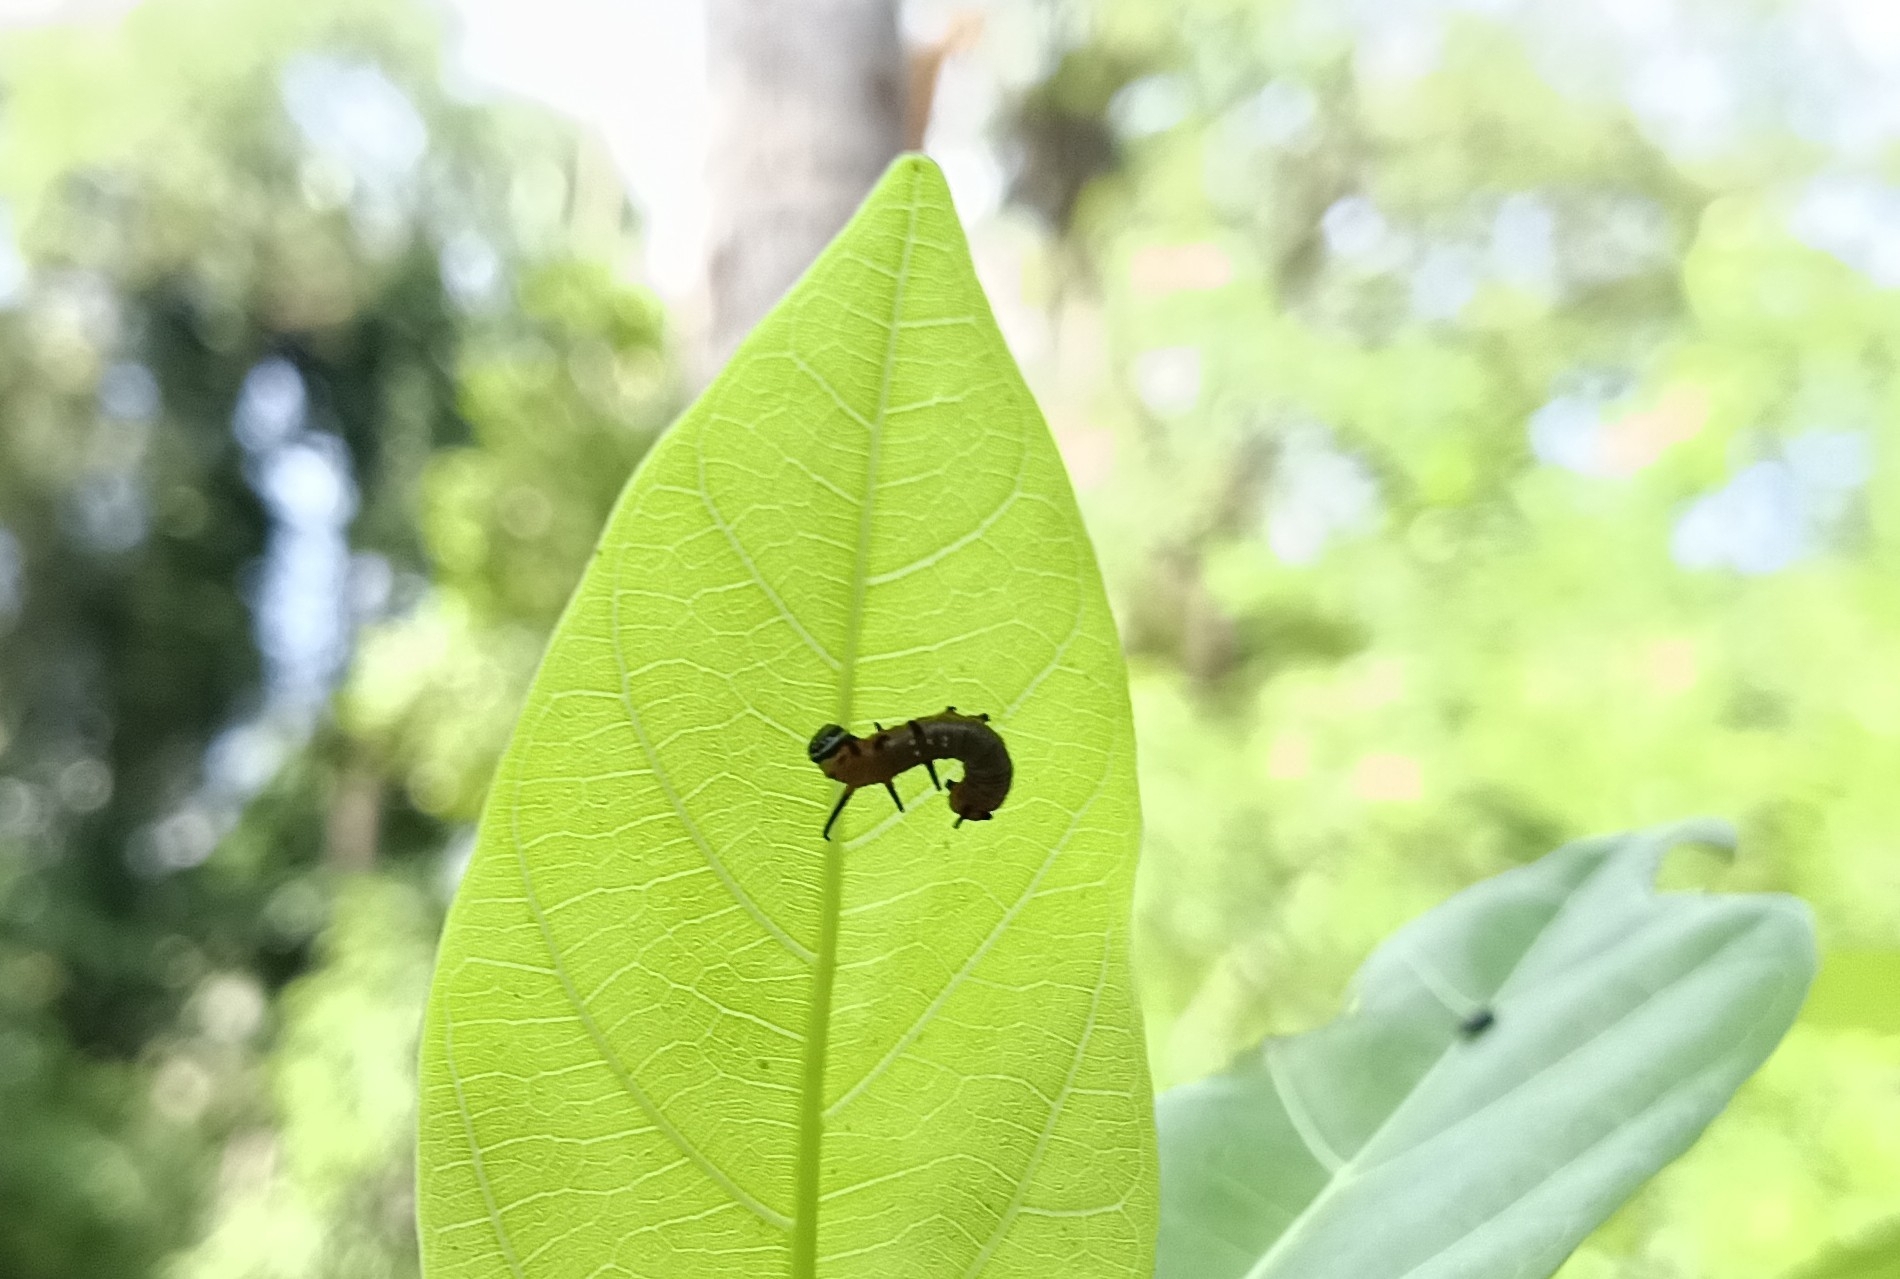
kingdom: Animalia
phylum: Arthropoda
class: Insecta
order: Lepidoptera
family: Nymphalidae
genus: Euploea
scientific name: Euploea core
